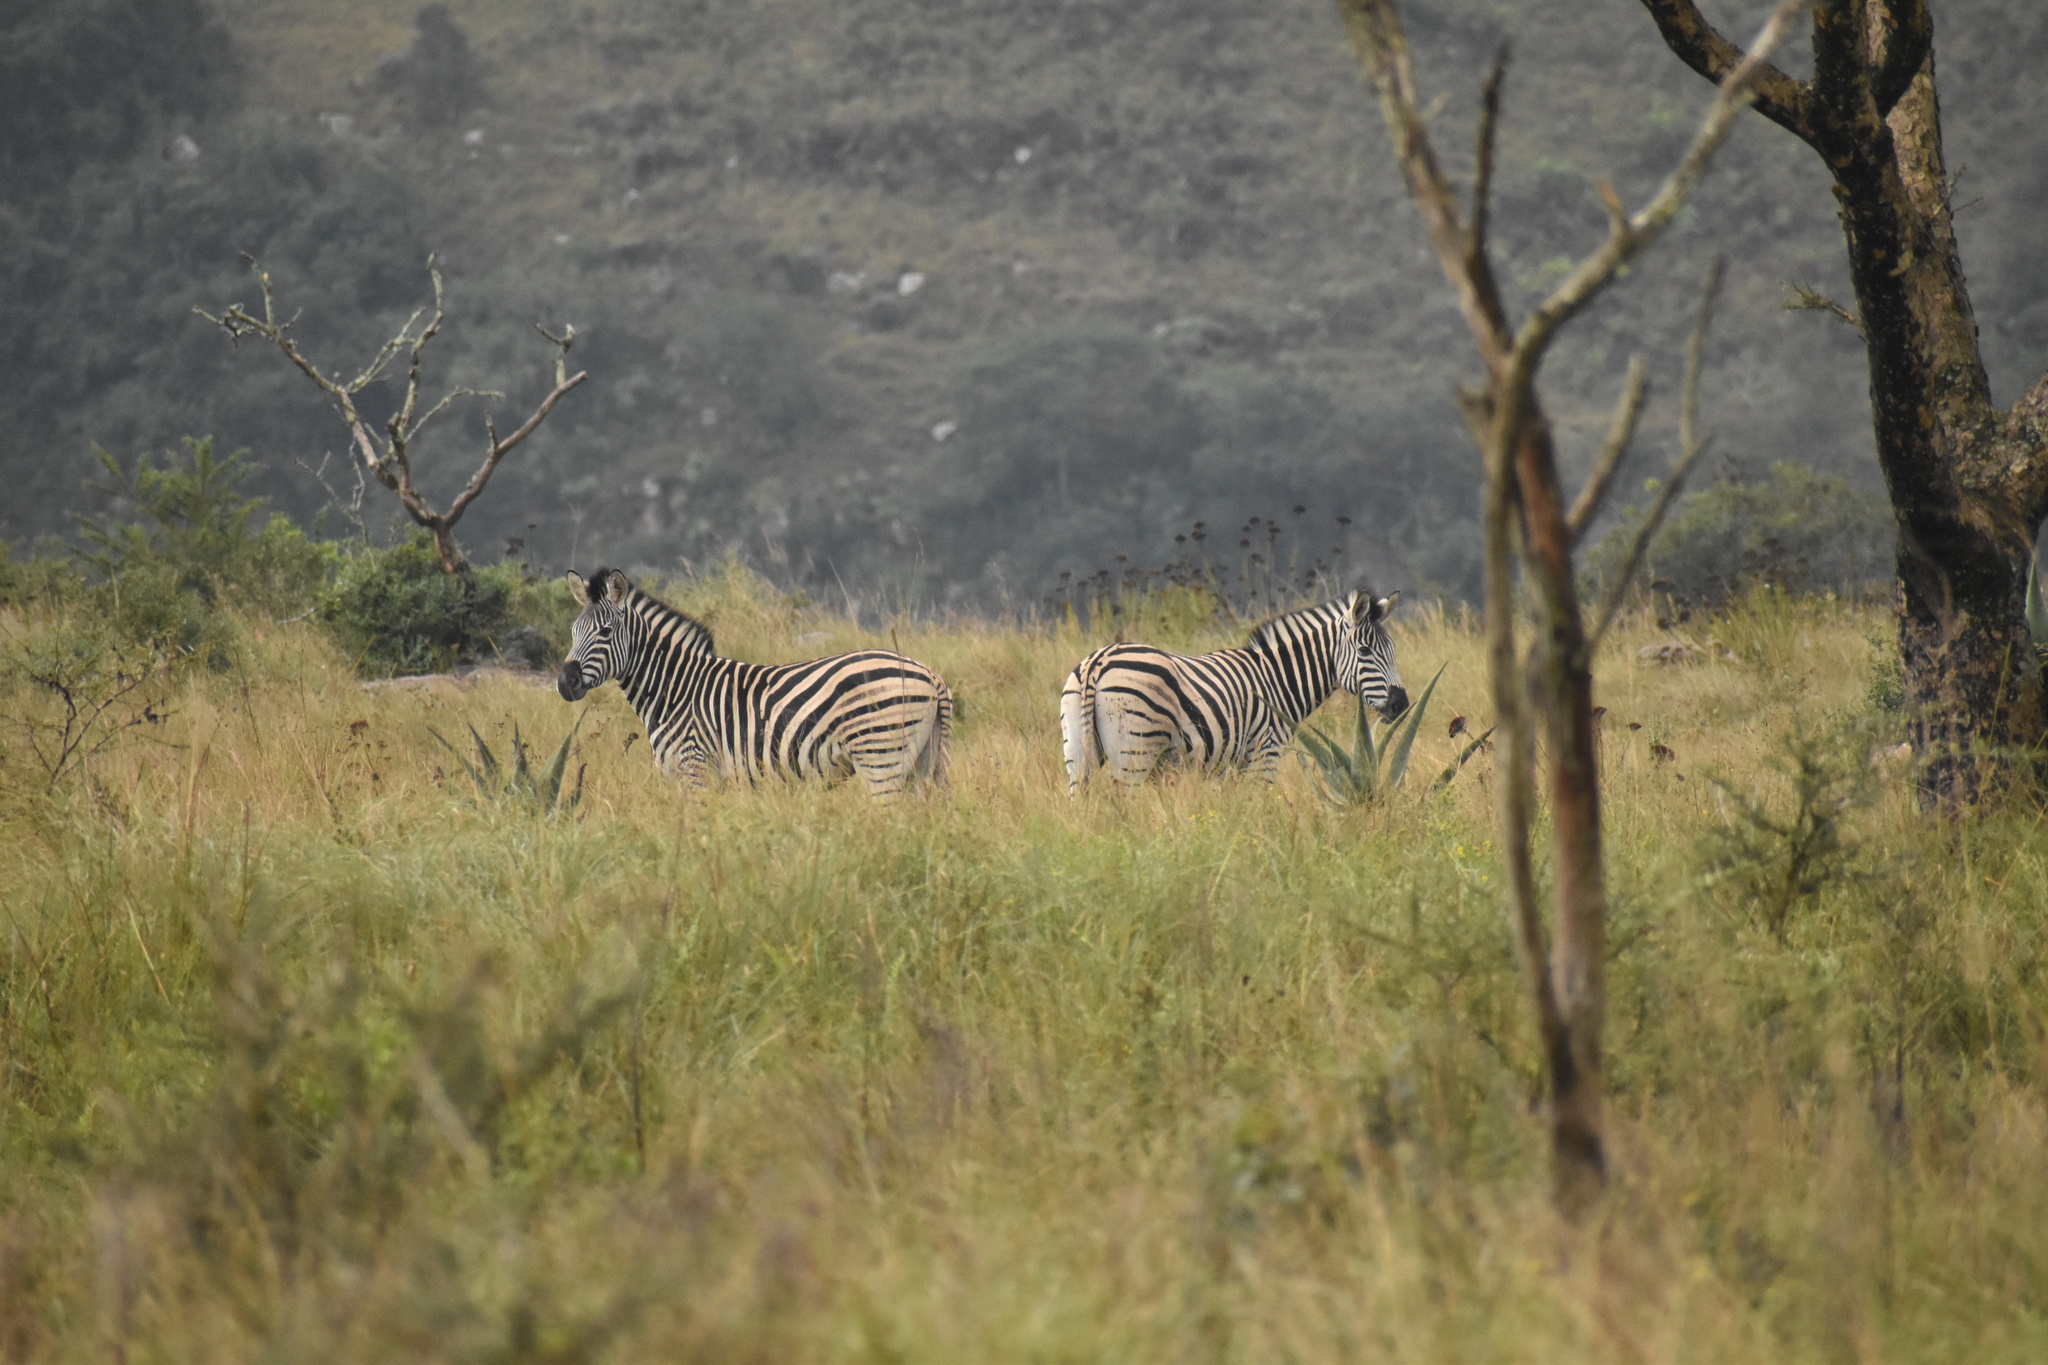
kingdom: Animalia
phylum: Chordata
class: Mammalia
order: Perissodactyla
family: Equidae
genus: Equus
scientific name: Equus quagga
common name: Plains zebra
